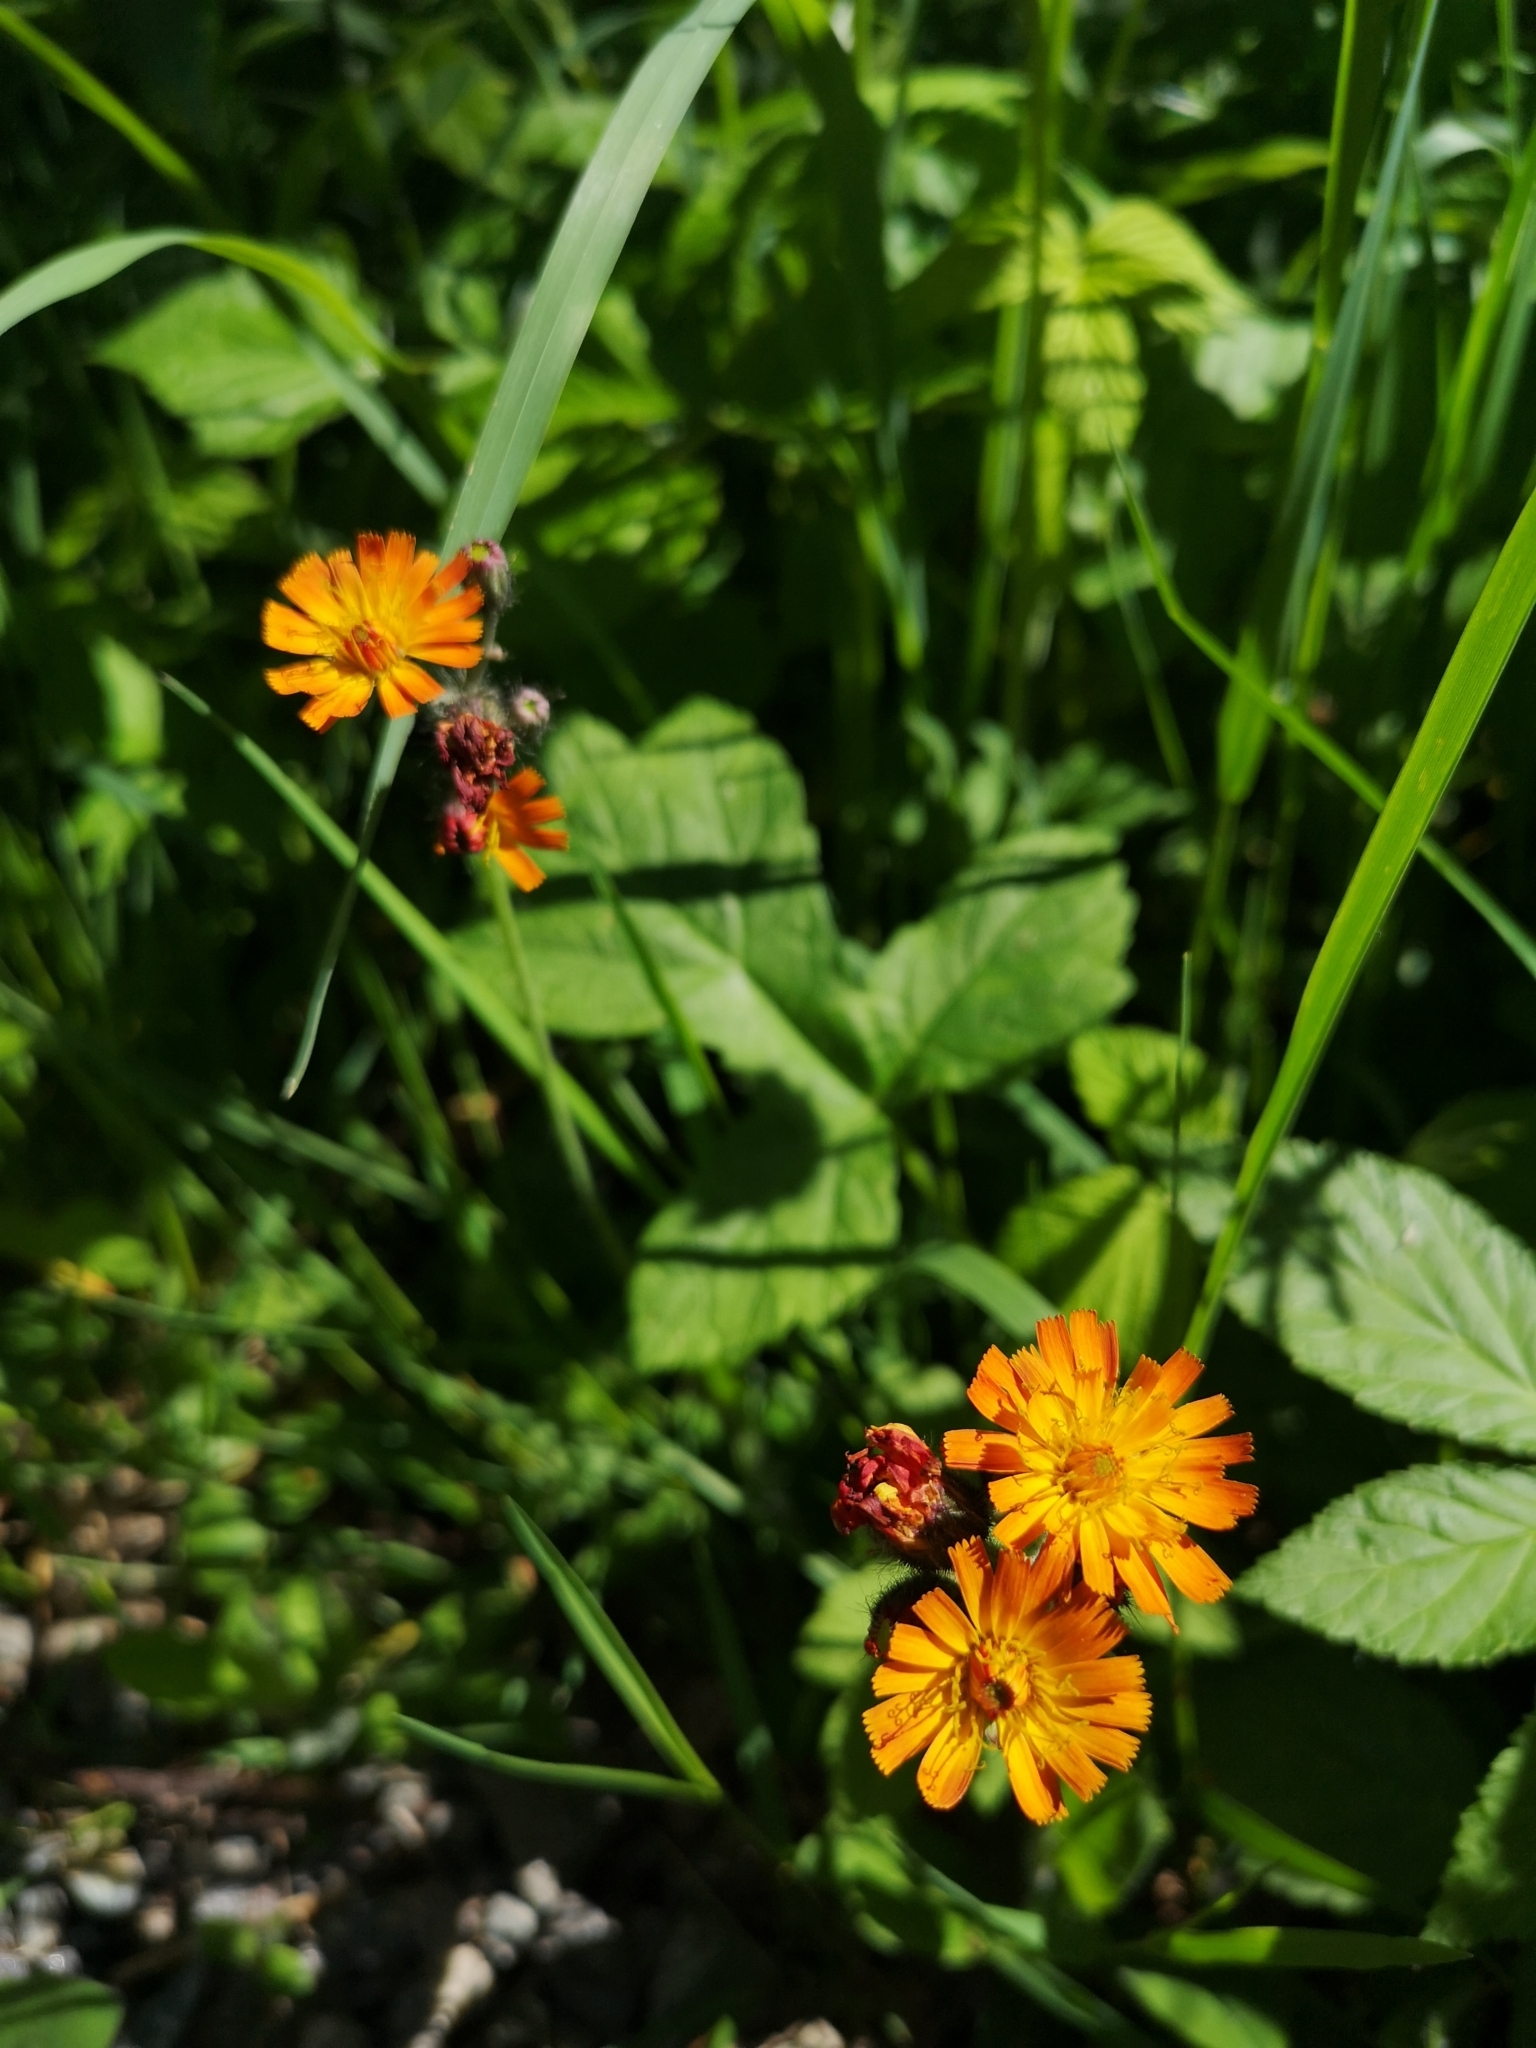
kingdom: Plantae
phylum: Tracheophyta
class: Magnoliopsida
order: Asterales
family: Asteraceae
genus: Pilosella
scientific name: Pilosella aurantiaca
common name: Fox-and-cubs
